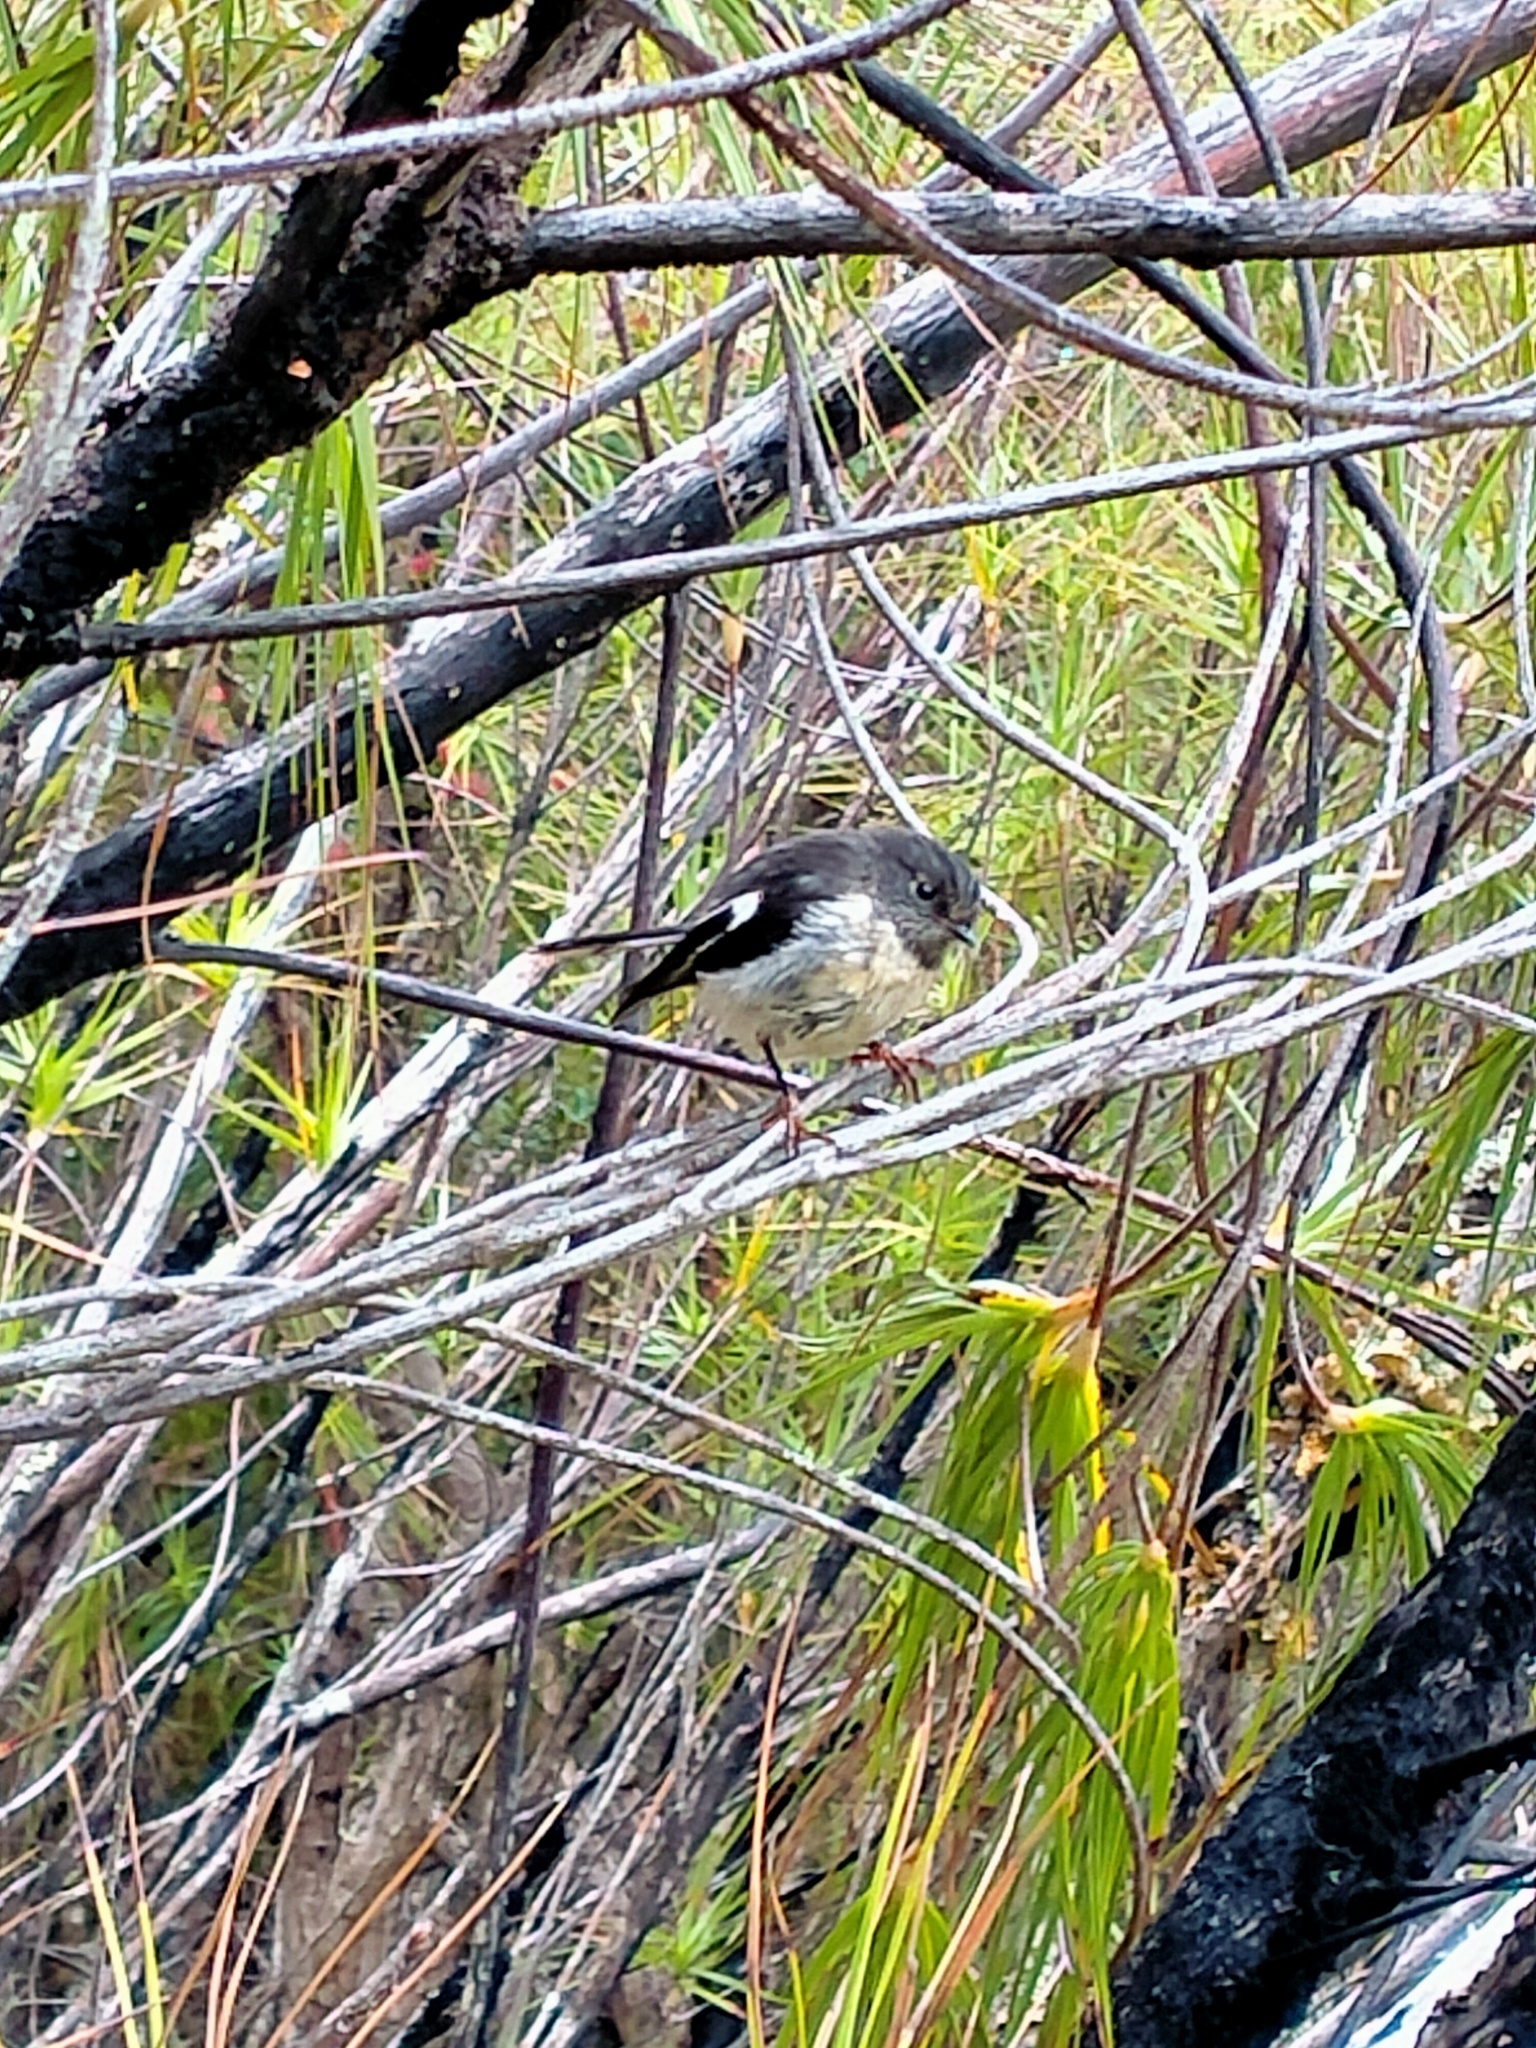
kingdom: Animalia
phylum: Chordata
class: Aves
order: Passeriformes
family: Petroicidae
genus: Petroica
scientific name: Petroica macrocephala
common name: Tomtit
